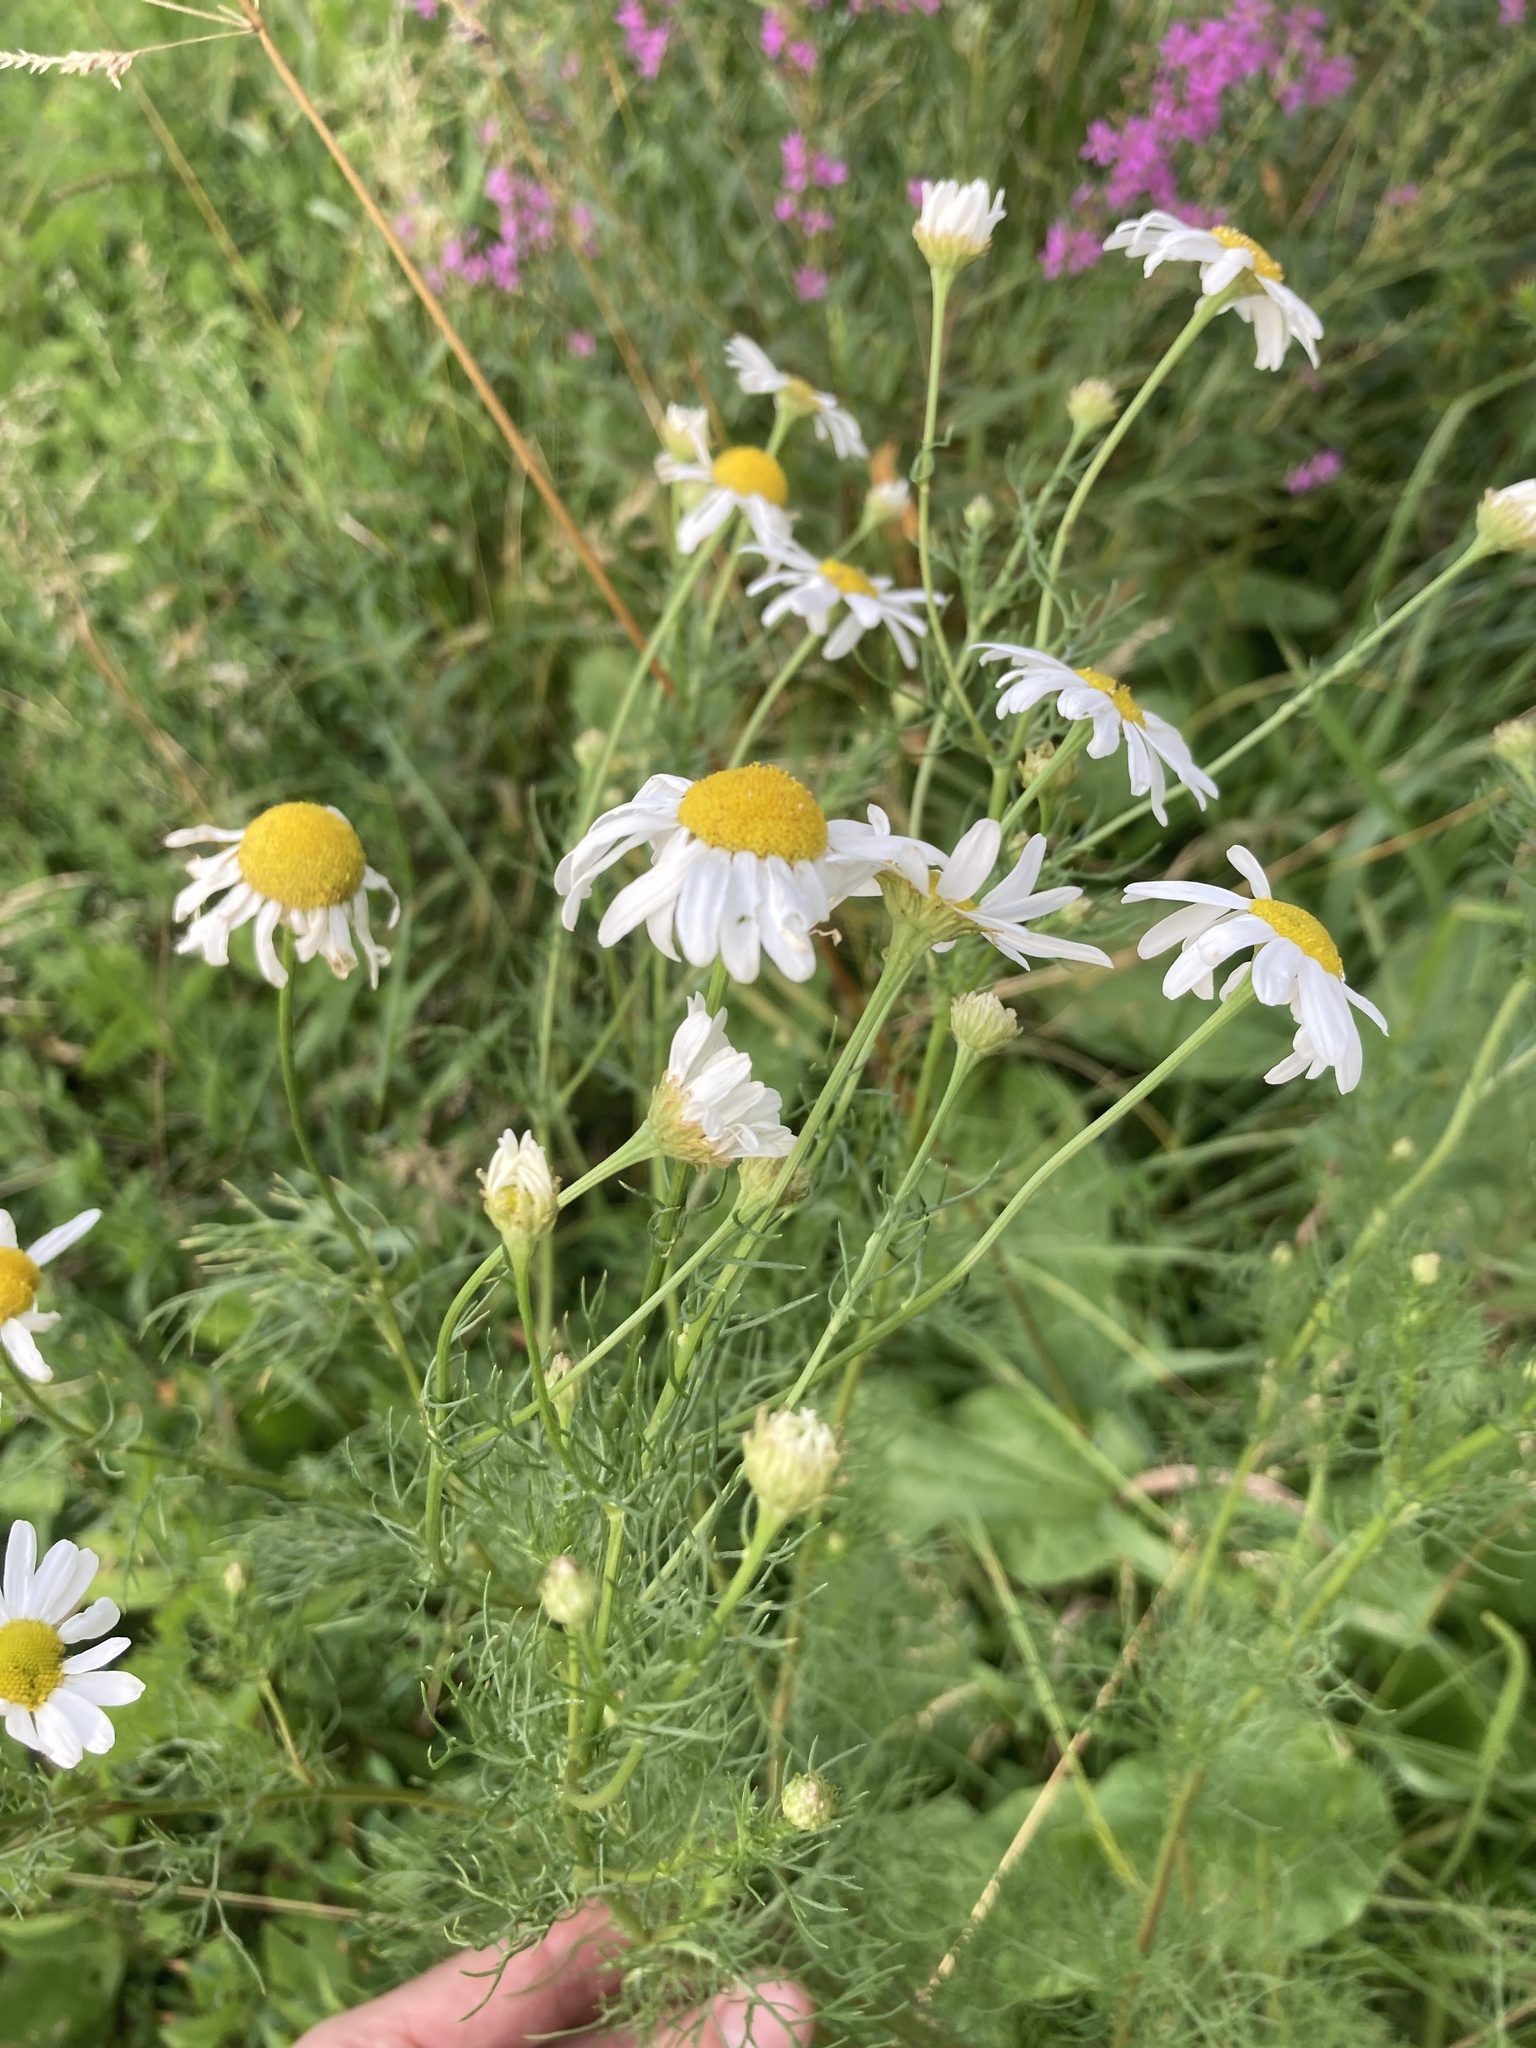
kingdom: Plantae
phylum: Tracheophyta
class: Magnoliopsida
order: Asterales
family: Asteraceae
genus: Tripleurospermum
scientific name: Tripleurospermum inodorum
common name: Scentless mayweed
